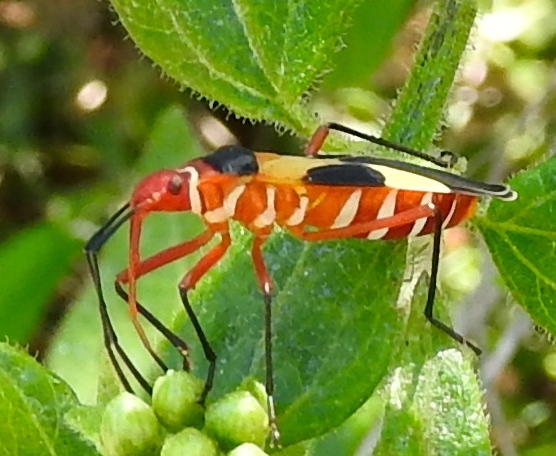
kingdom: Animalia
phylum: Arthropoda
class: Insecta
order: Hemiptera
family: Pyrrhocoridae
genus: Dysdercus
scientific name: Dysdercus concinnus
